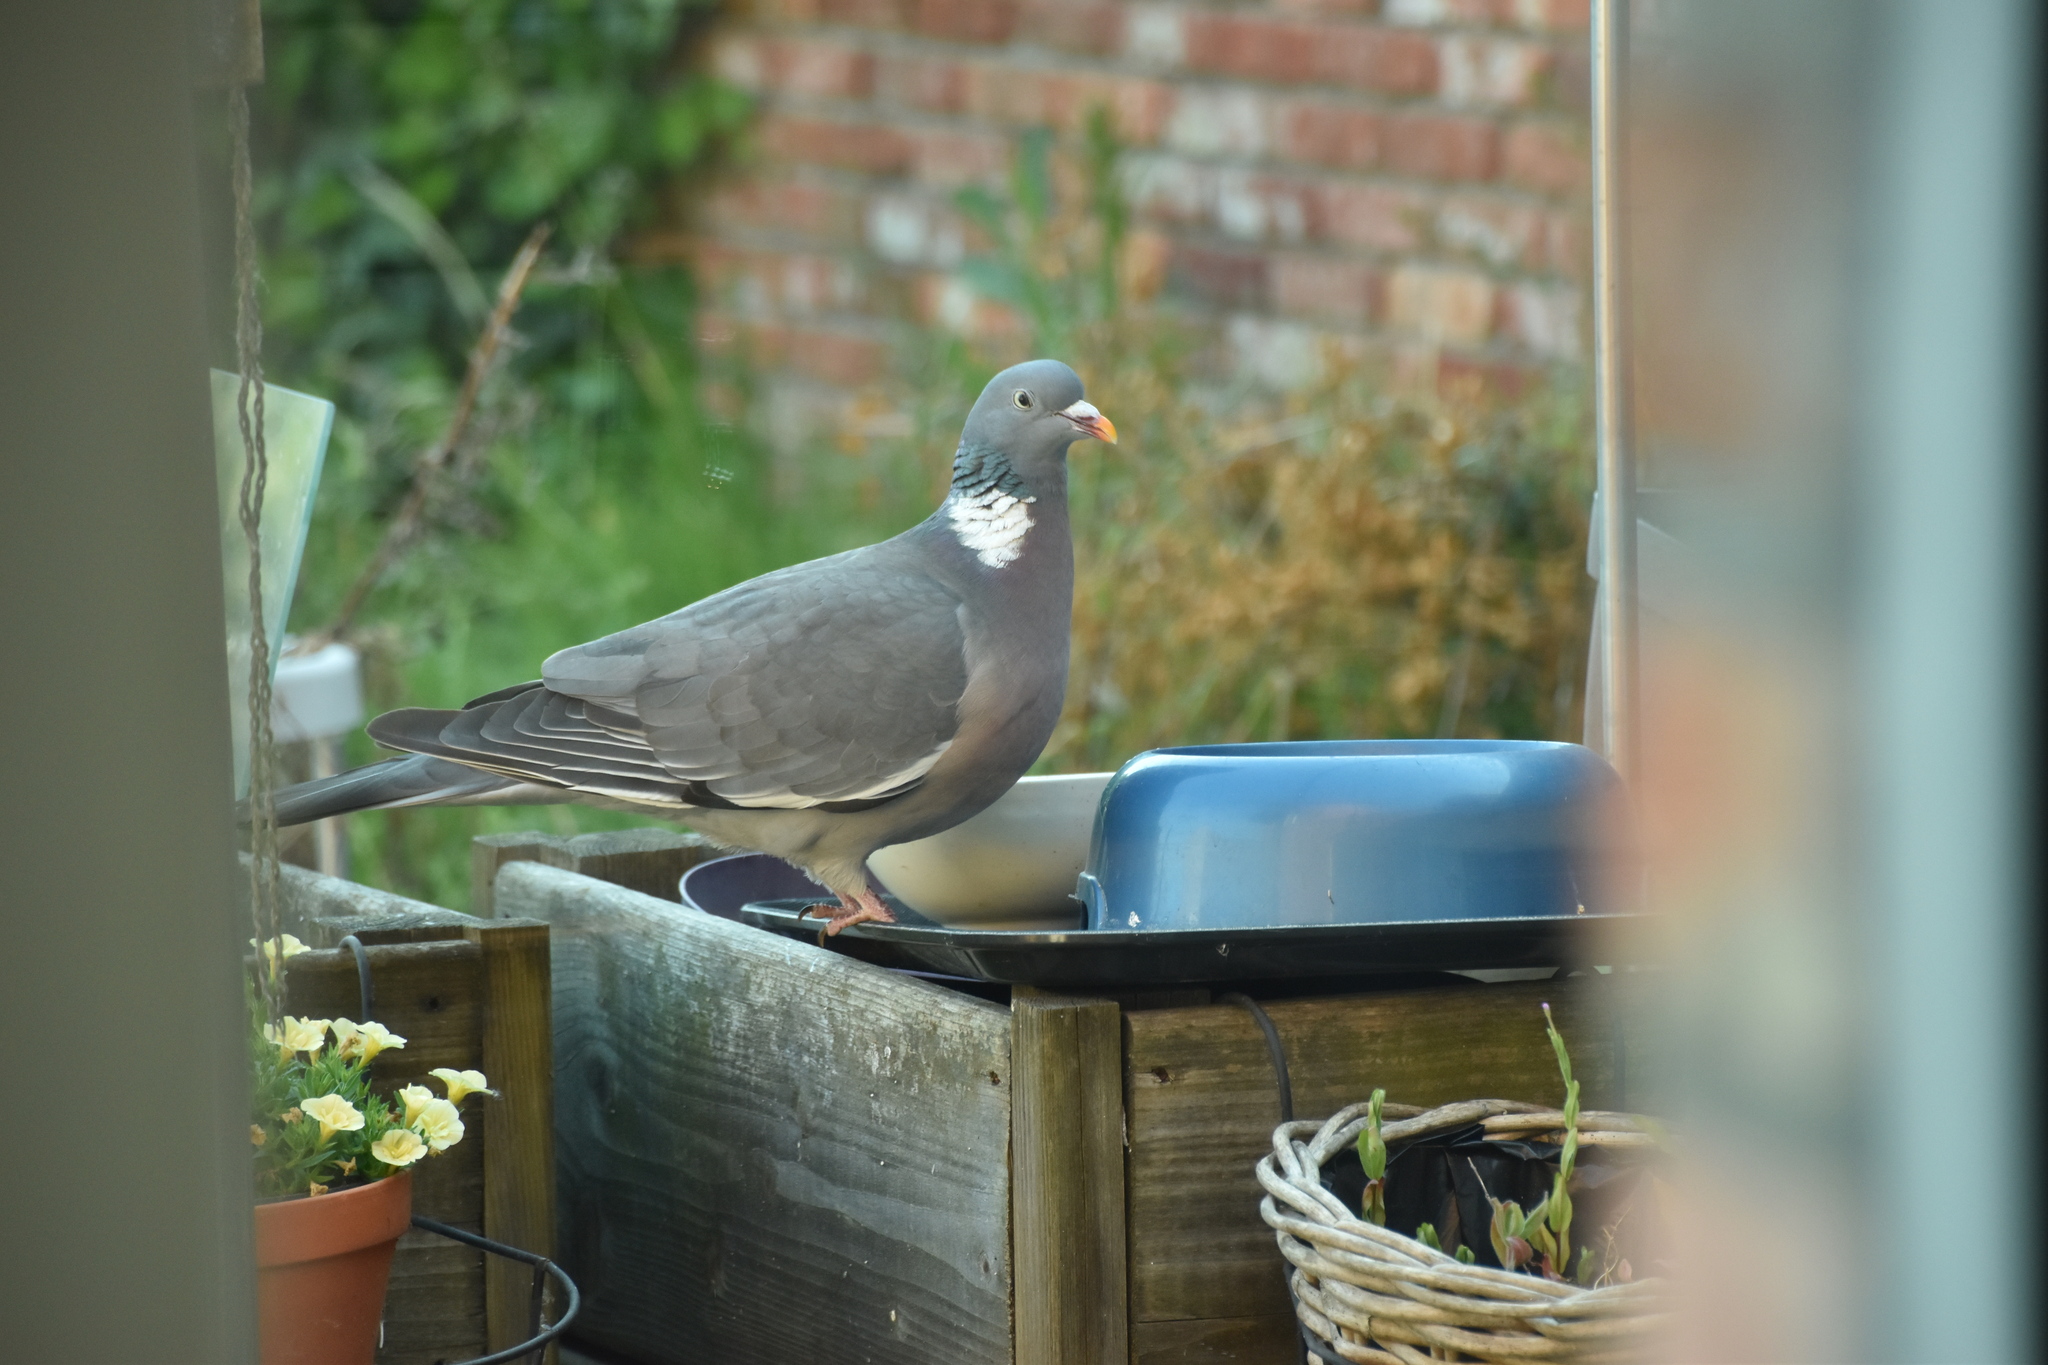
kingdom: Animalia
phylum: Chordata
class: Aves
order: Columbiformes
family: Columbidae
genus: Columba
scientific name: Columba palumbus
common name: Common wood pigeon
